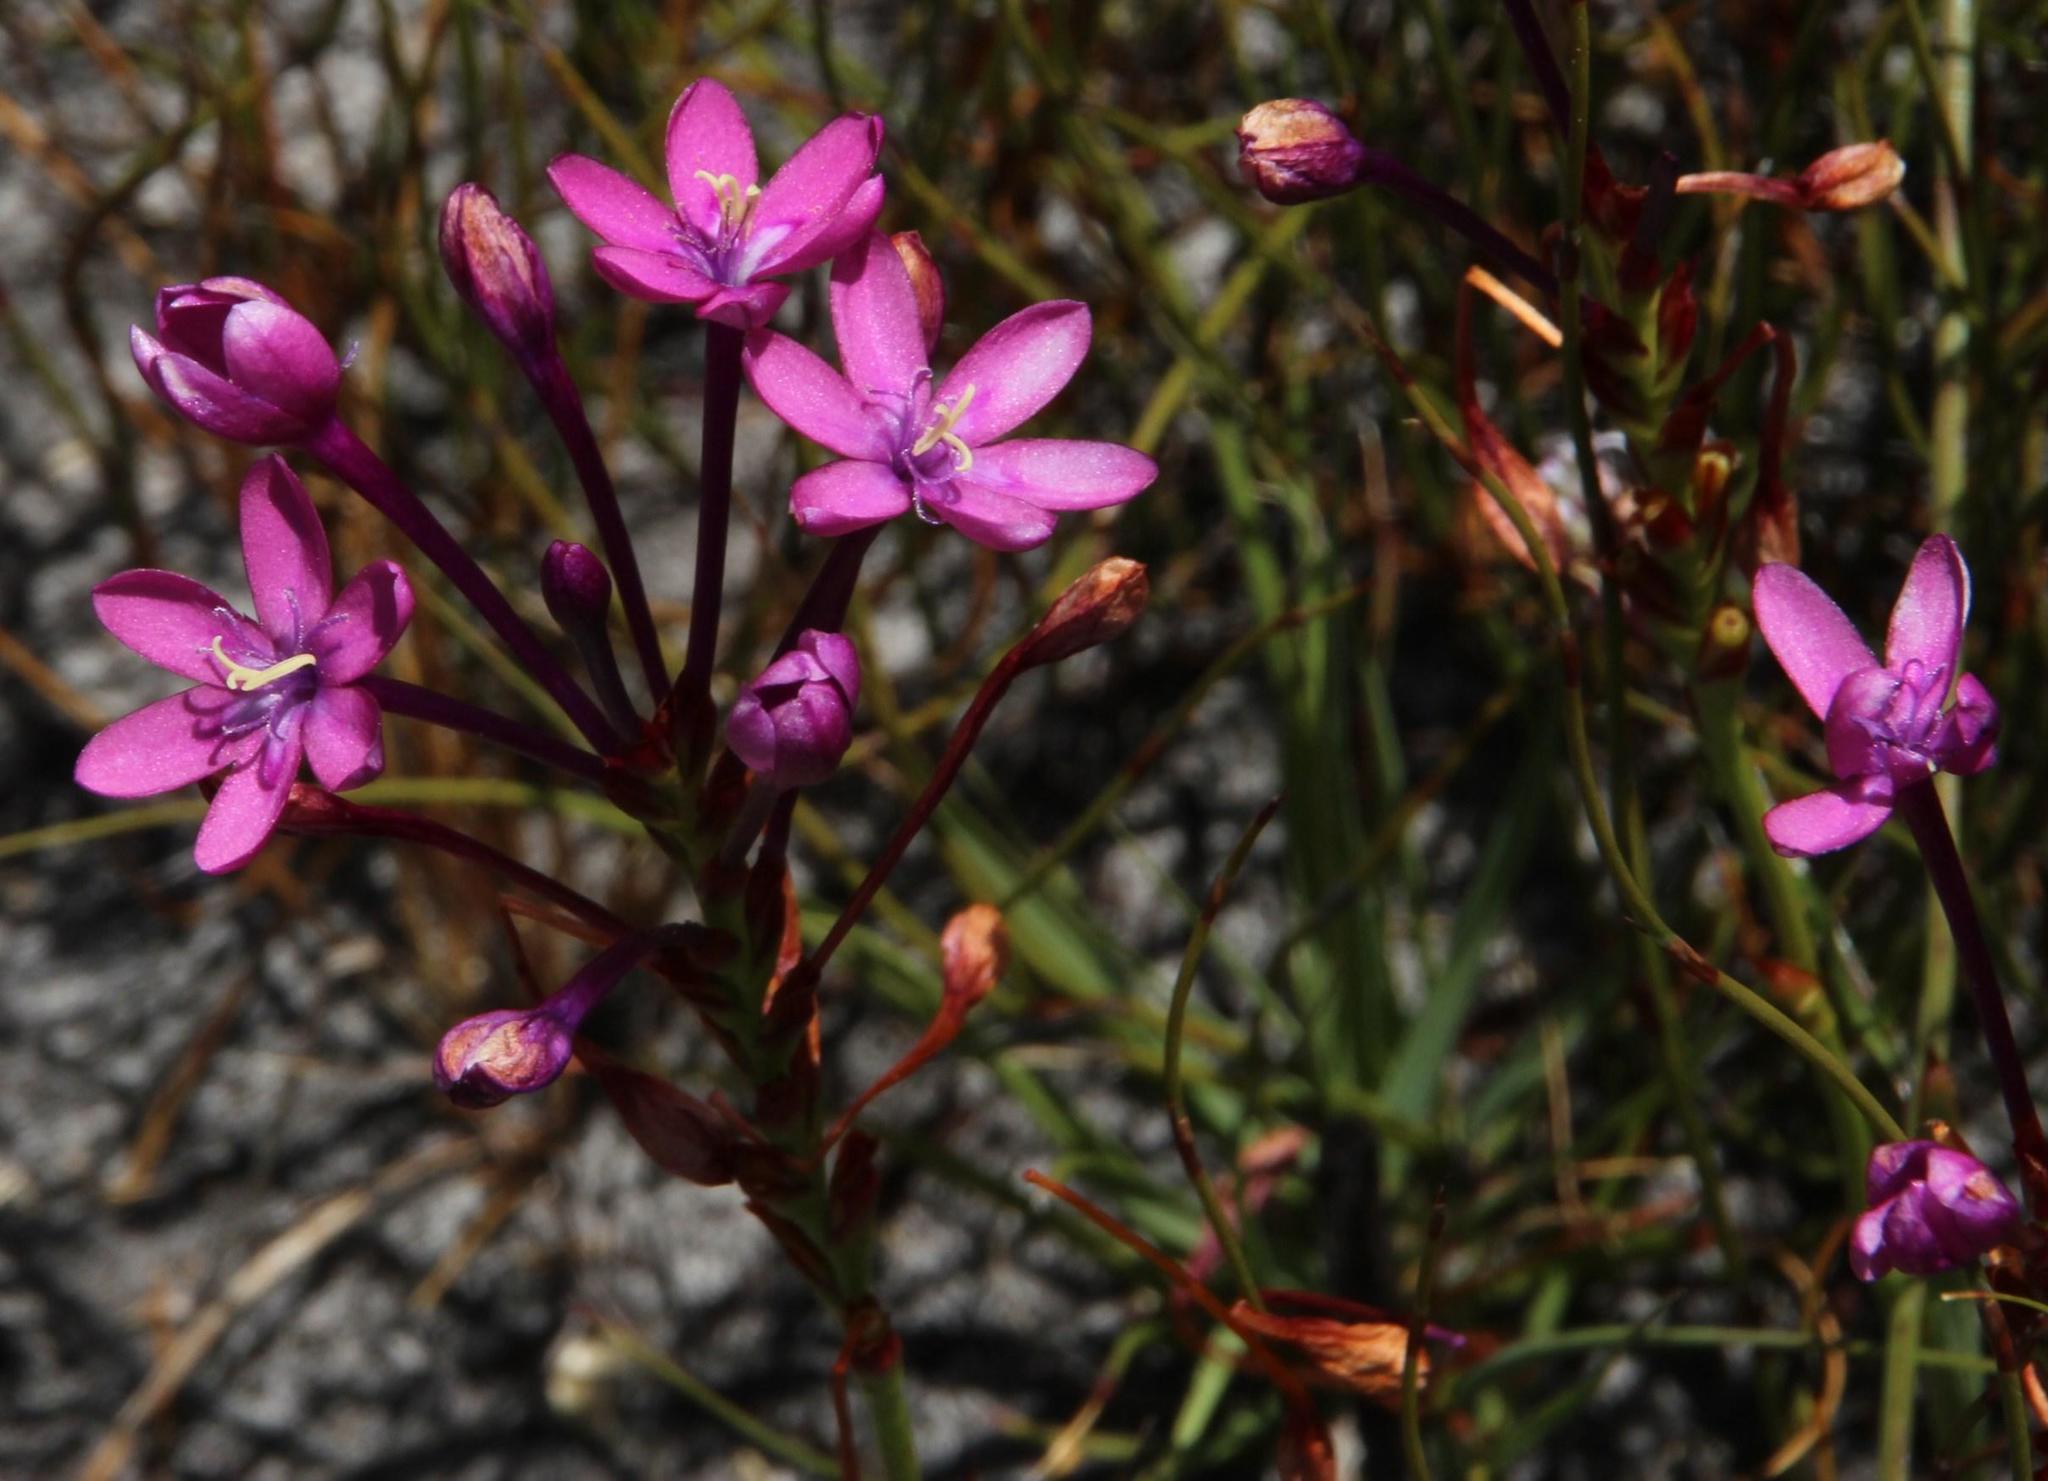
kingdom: Plantae
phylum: Tracheophyta
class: Liliopsida
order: Asparagales
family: Iridaceae
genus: Thereianthus
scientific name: Thereianthus minutus
